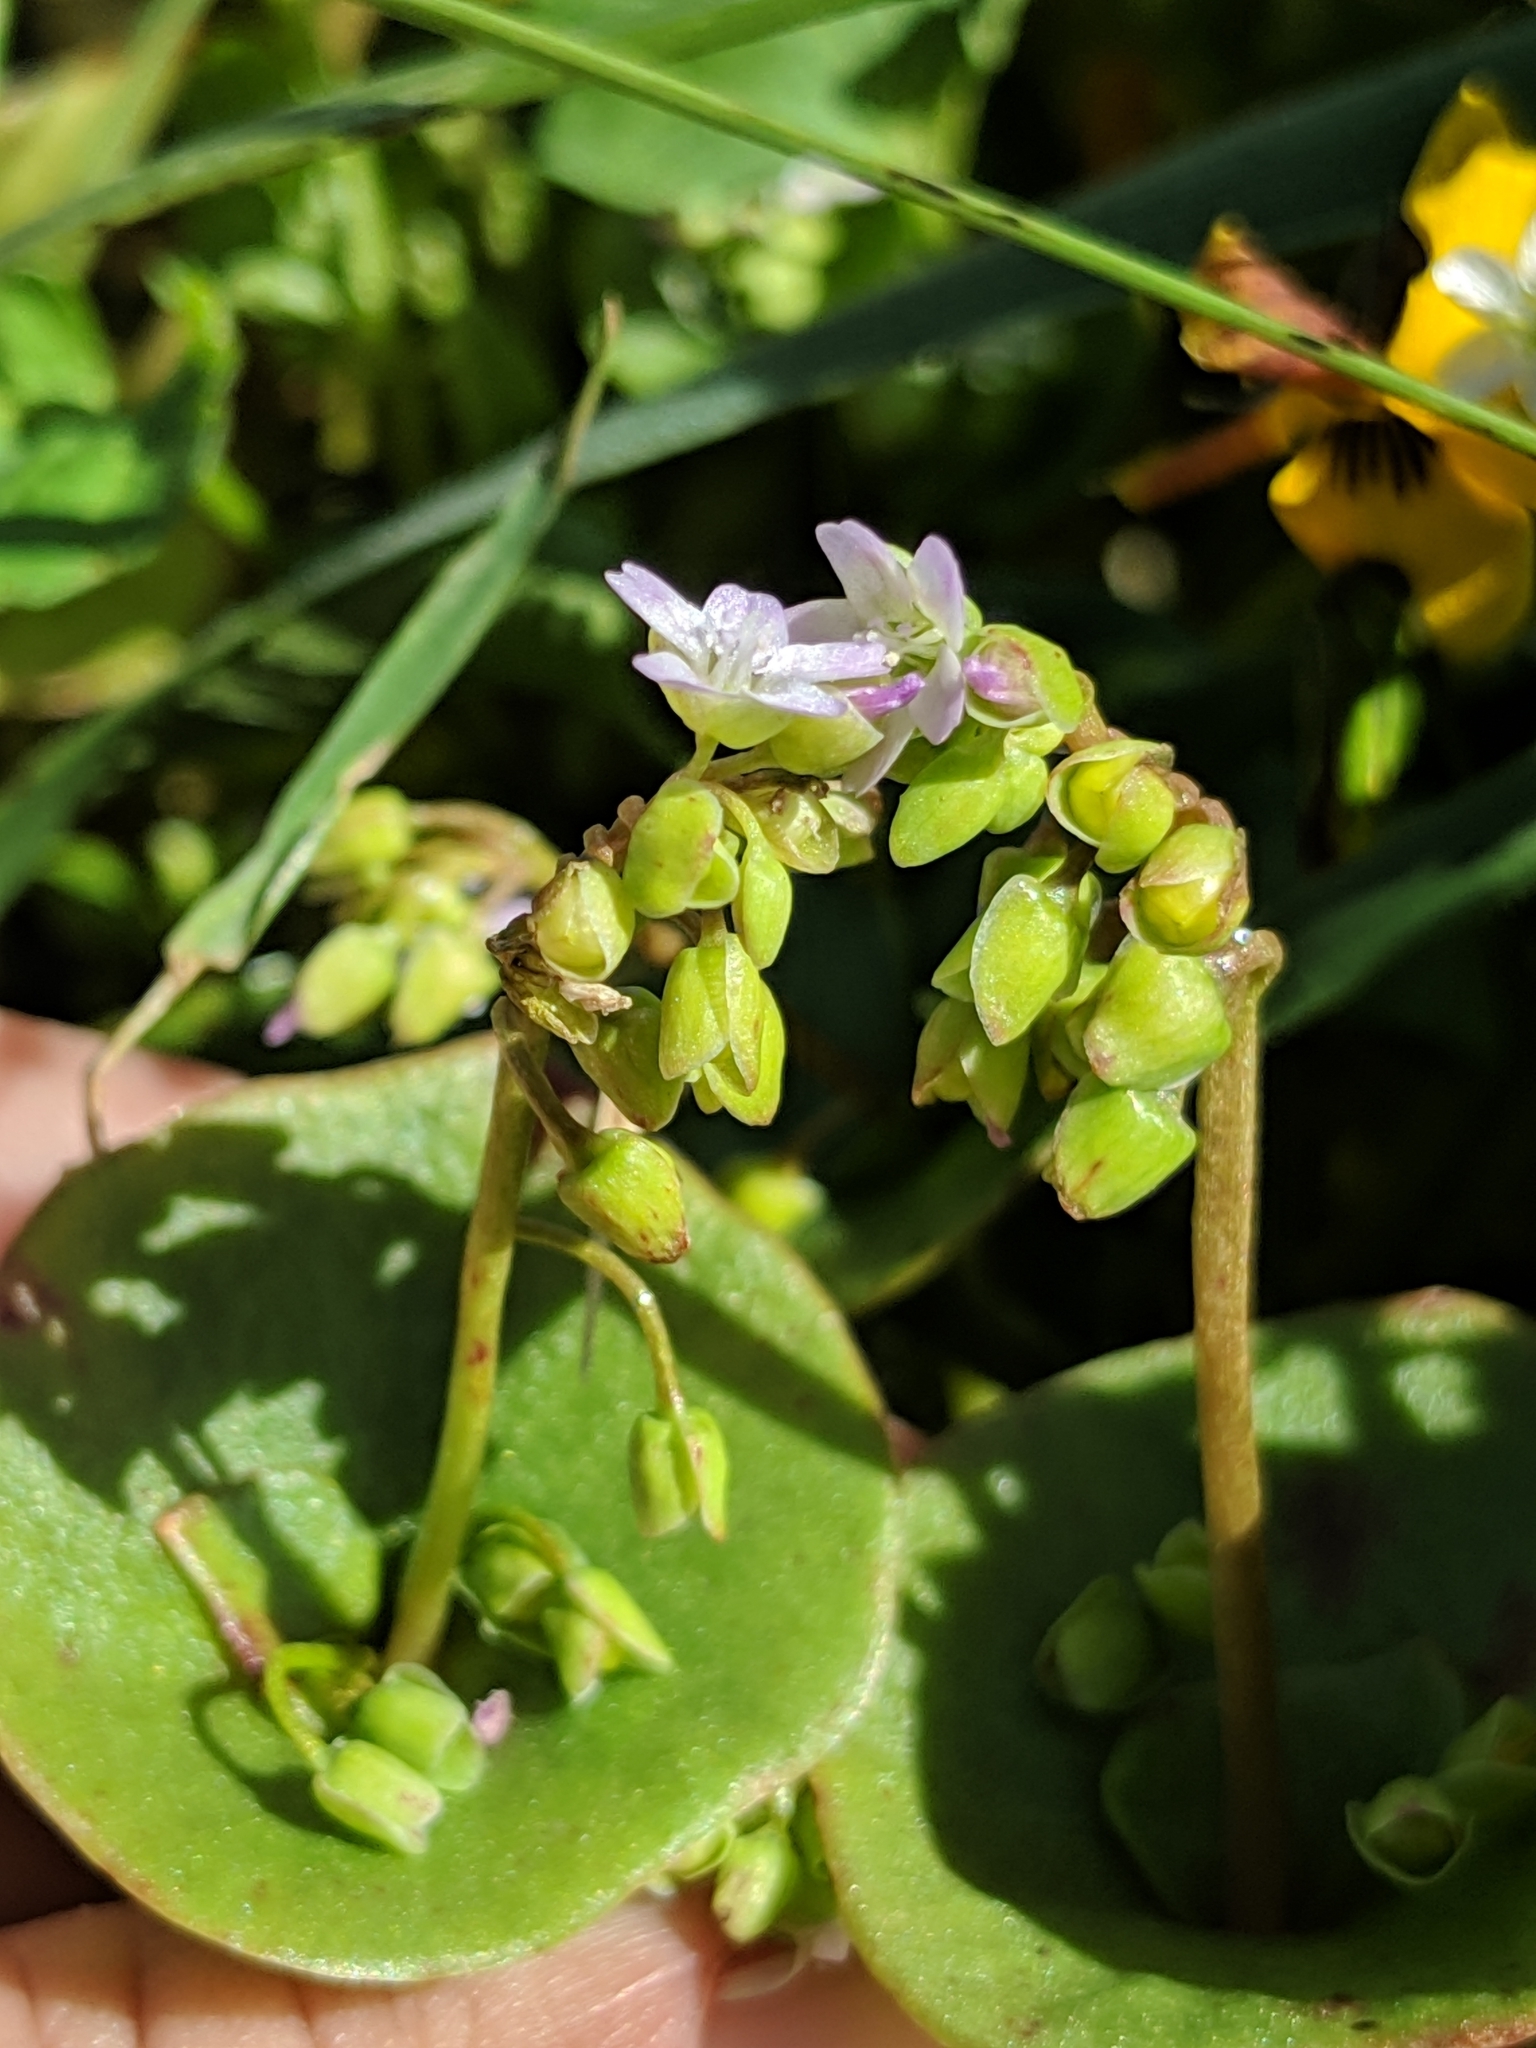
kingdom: Plantae
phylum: Tracheophyta
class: Magnoliopsida
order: Caryophyllales
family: Montiaceae
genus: Claytonia
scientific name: Claytonia perfoliata
